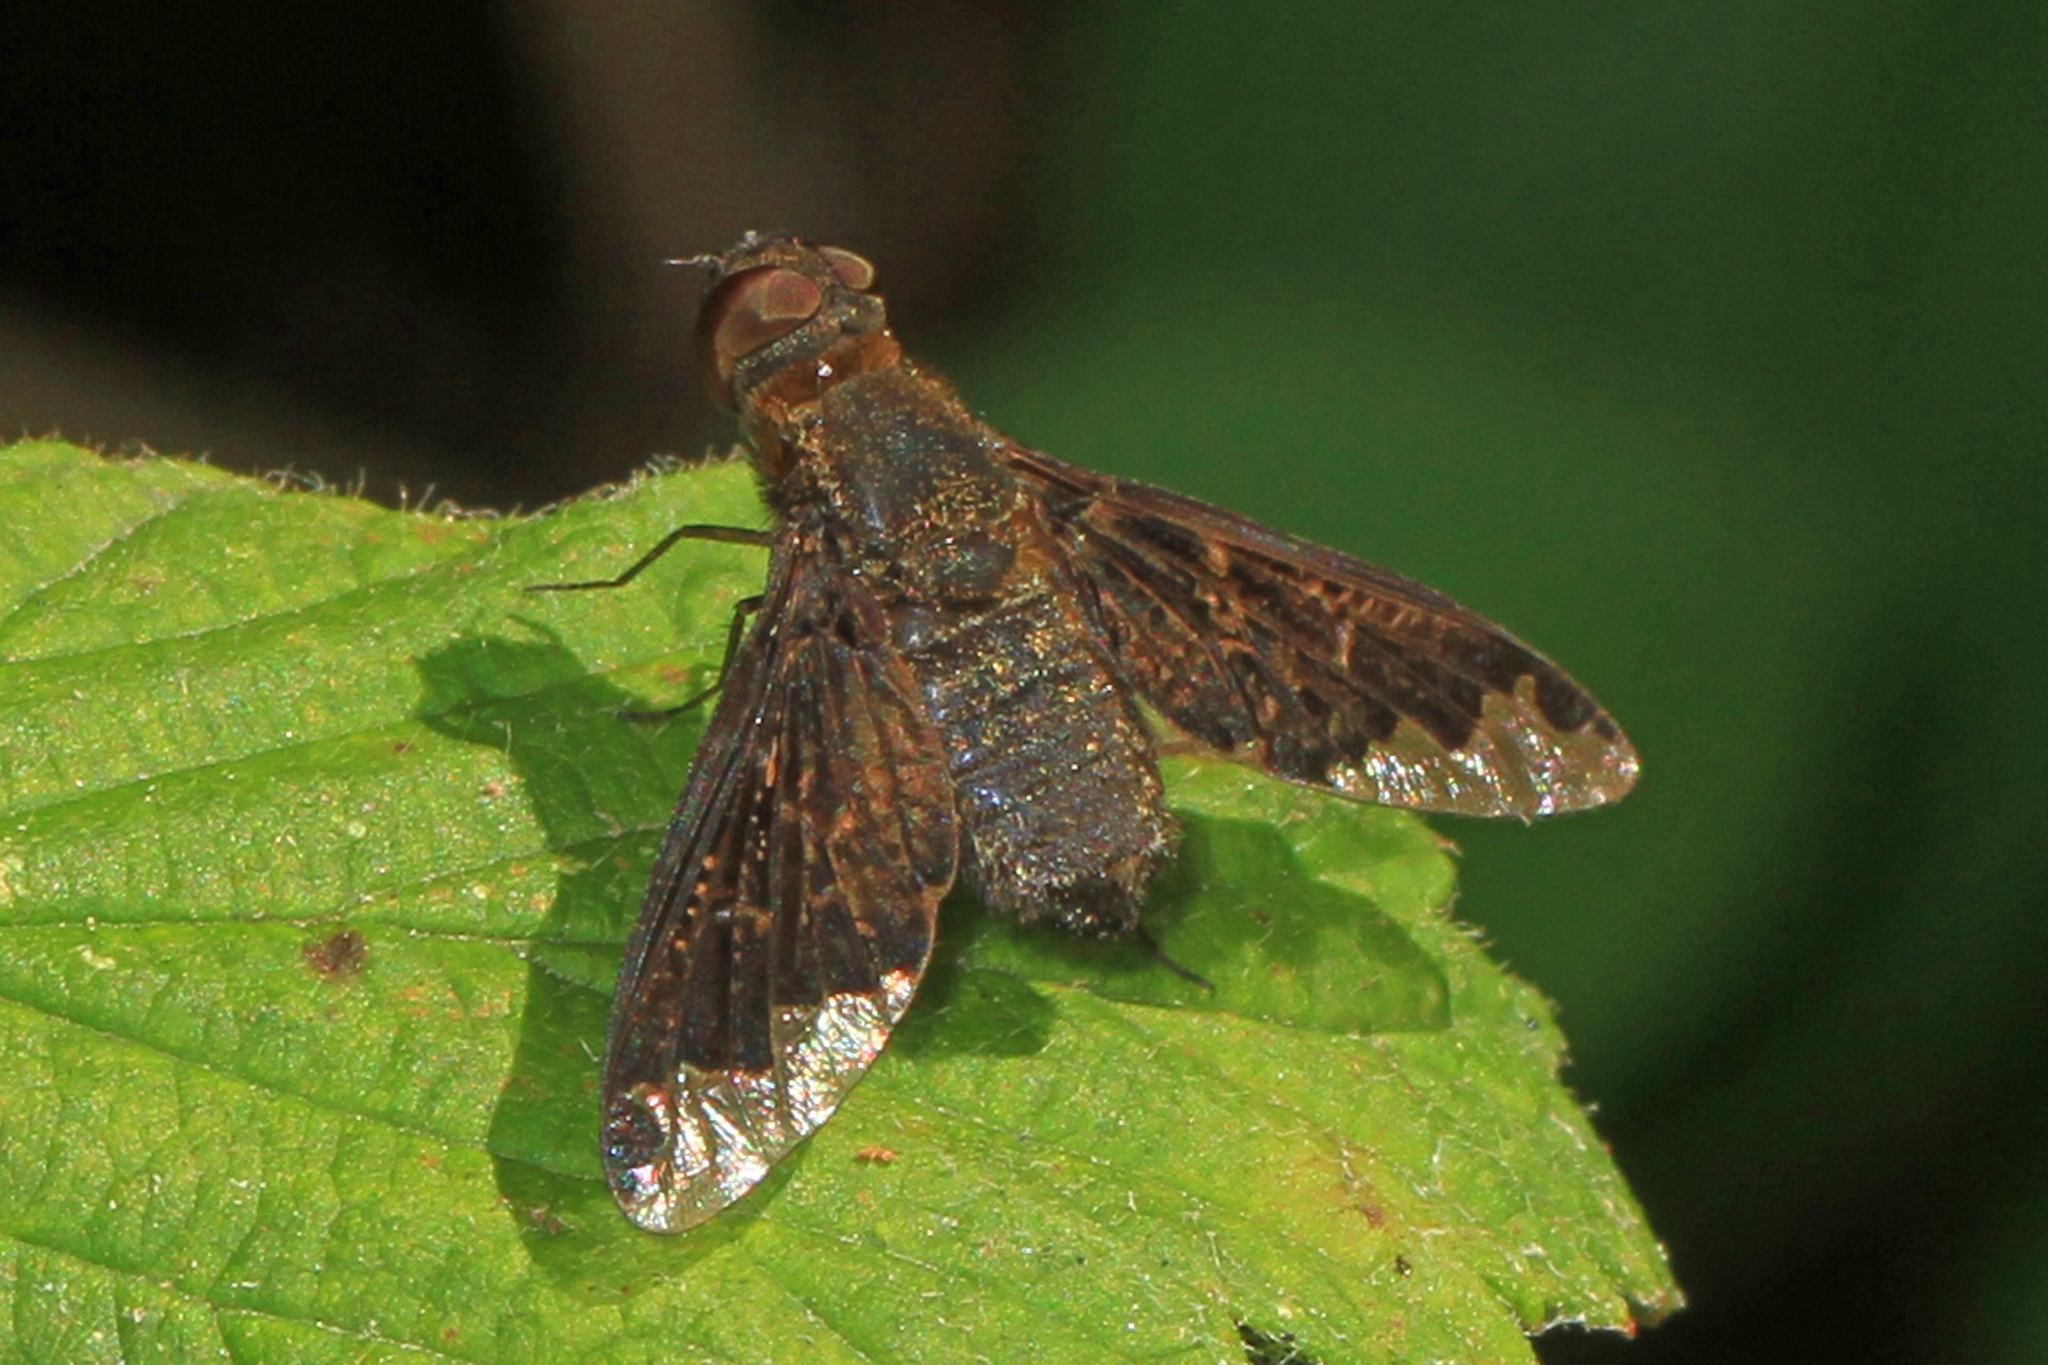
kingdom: Animalia
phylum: Arthropoda
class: Insecta
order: Diptera
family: Bombyliidae
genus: Hemipenthes
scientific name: Hemipenthes sinuosus
